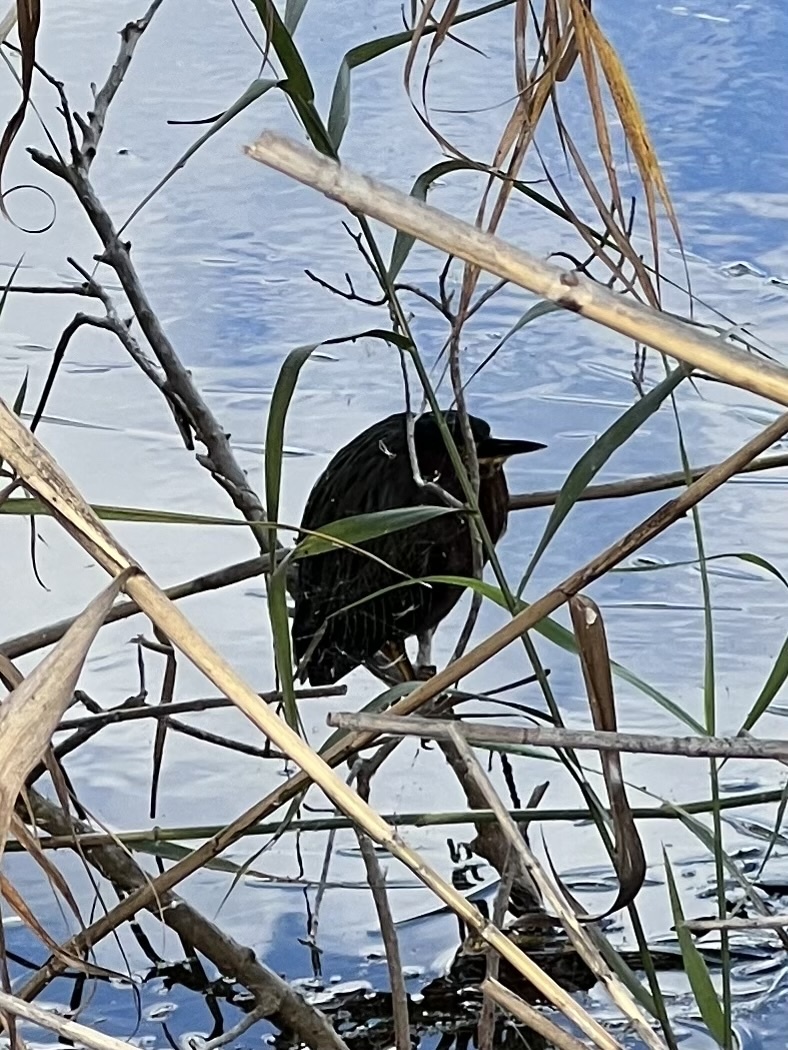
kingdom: Animalia
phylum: Chordata
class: Aves
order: Pelecaniformes
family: Ardeidae
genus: Butorides
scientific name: Butorides virescens
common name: Green heron
